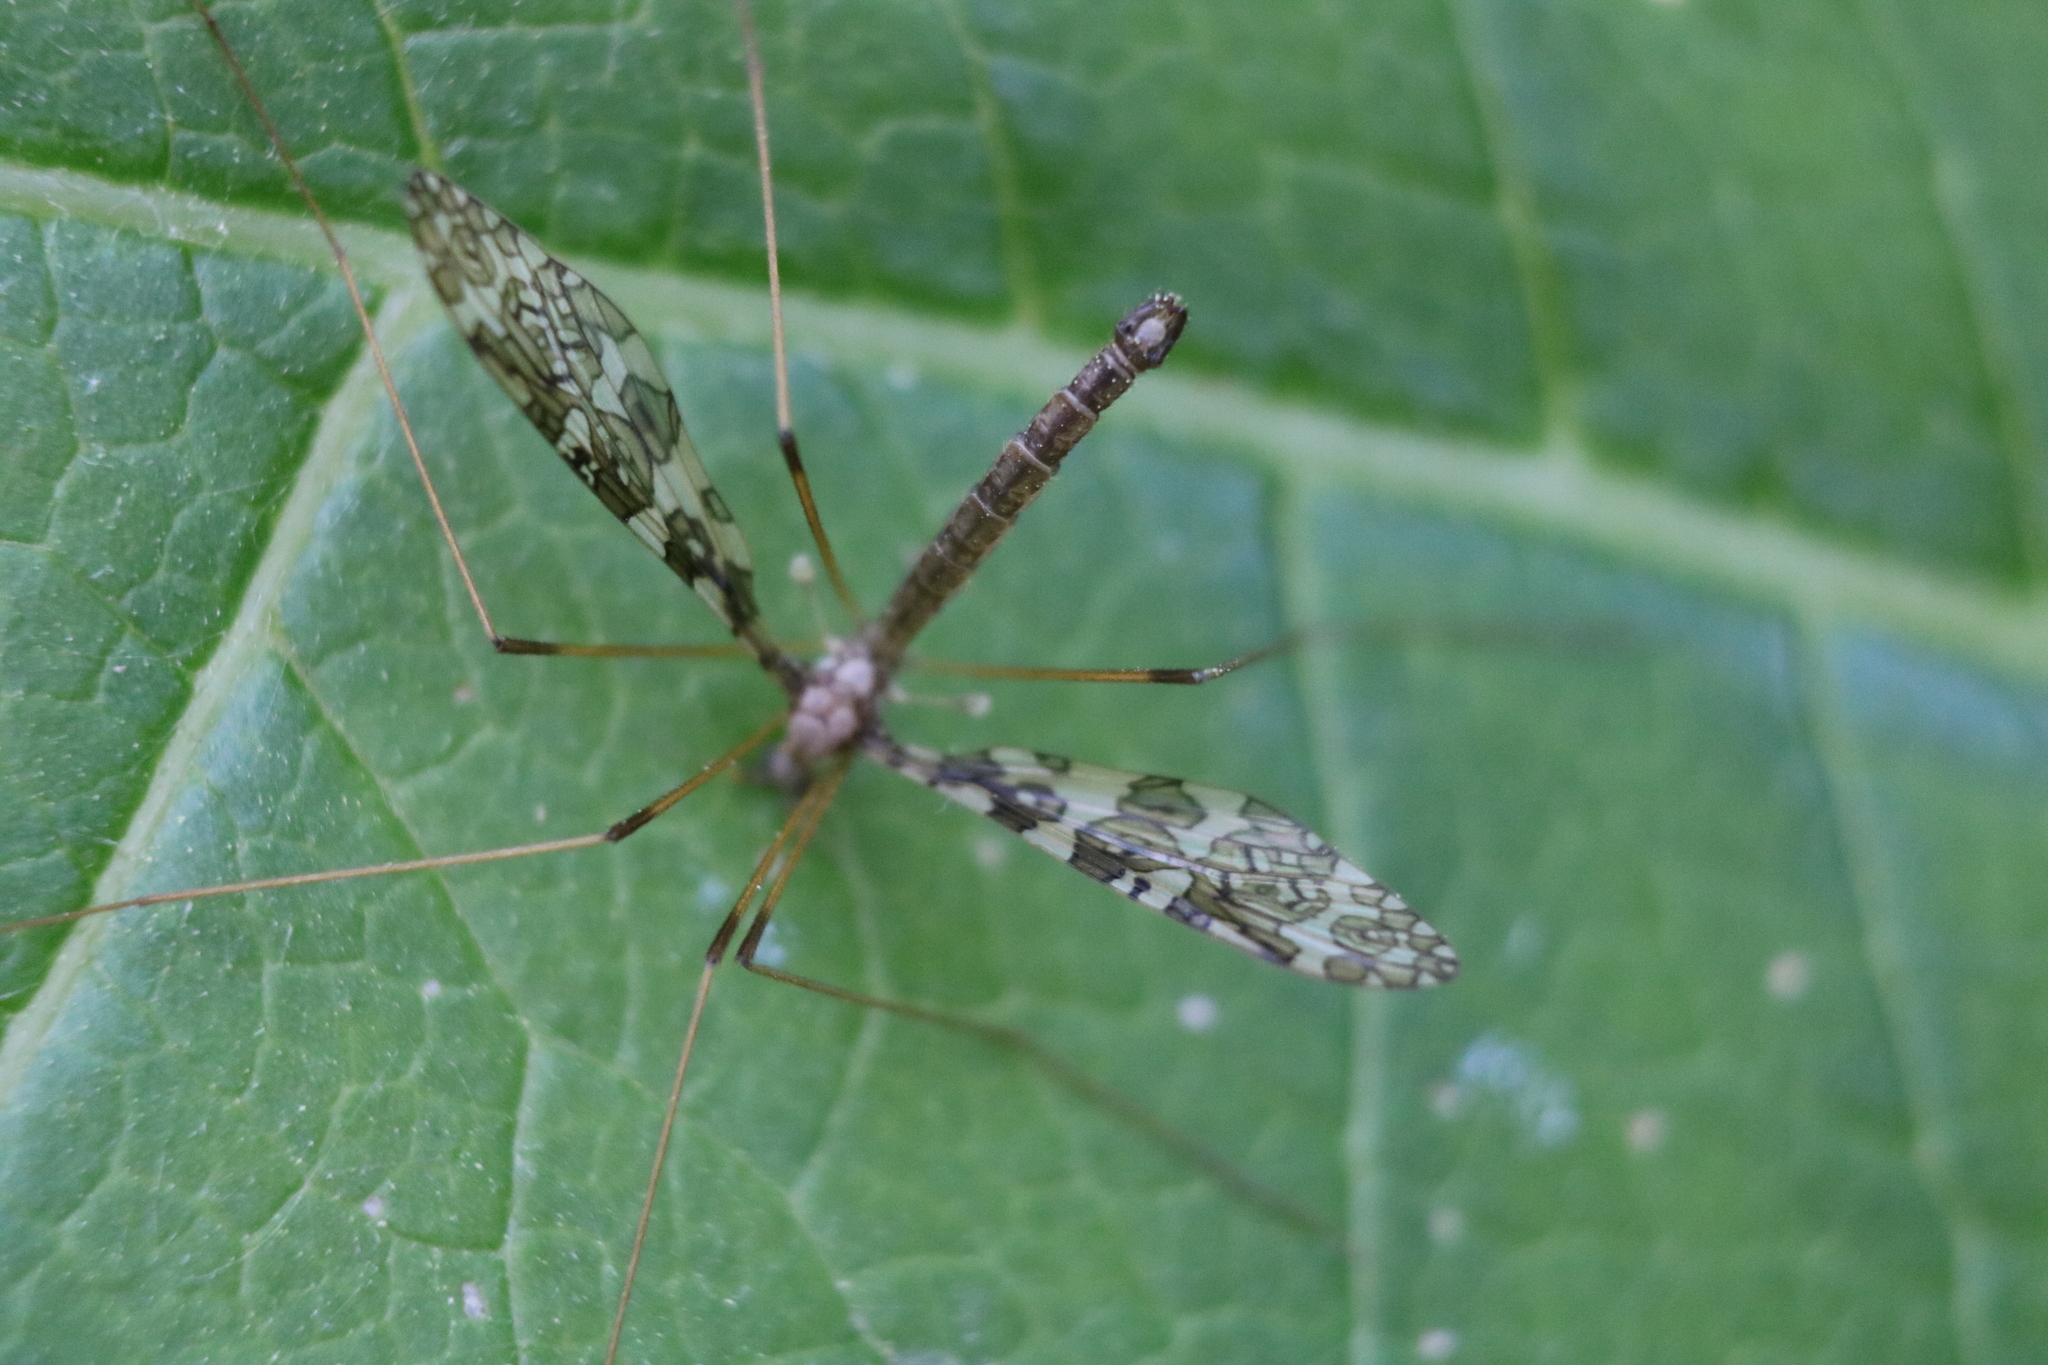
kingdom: Animalia
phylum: Arthropoda
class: Insecta
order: Diptera
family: Limoniidae
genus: Epiphragma
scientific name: Epiphragma fasciapenne
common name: Band-winged crane fly
